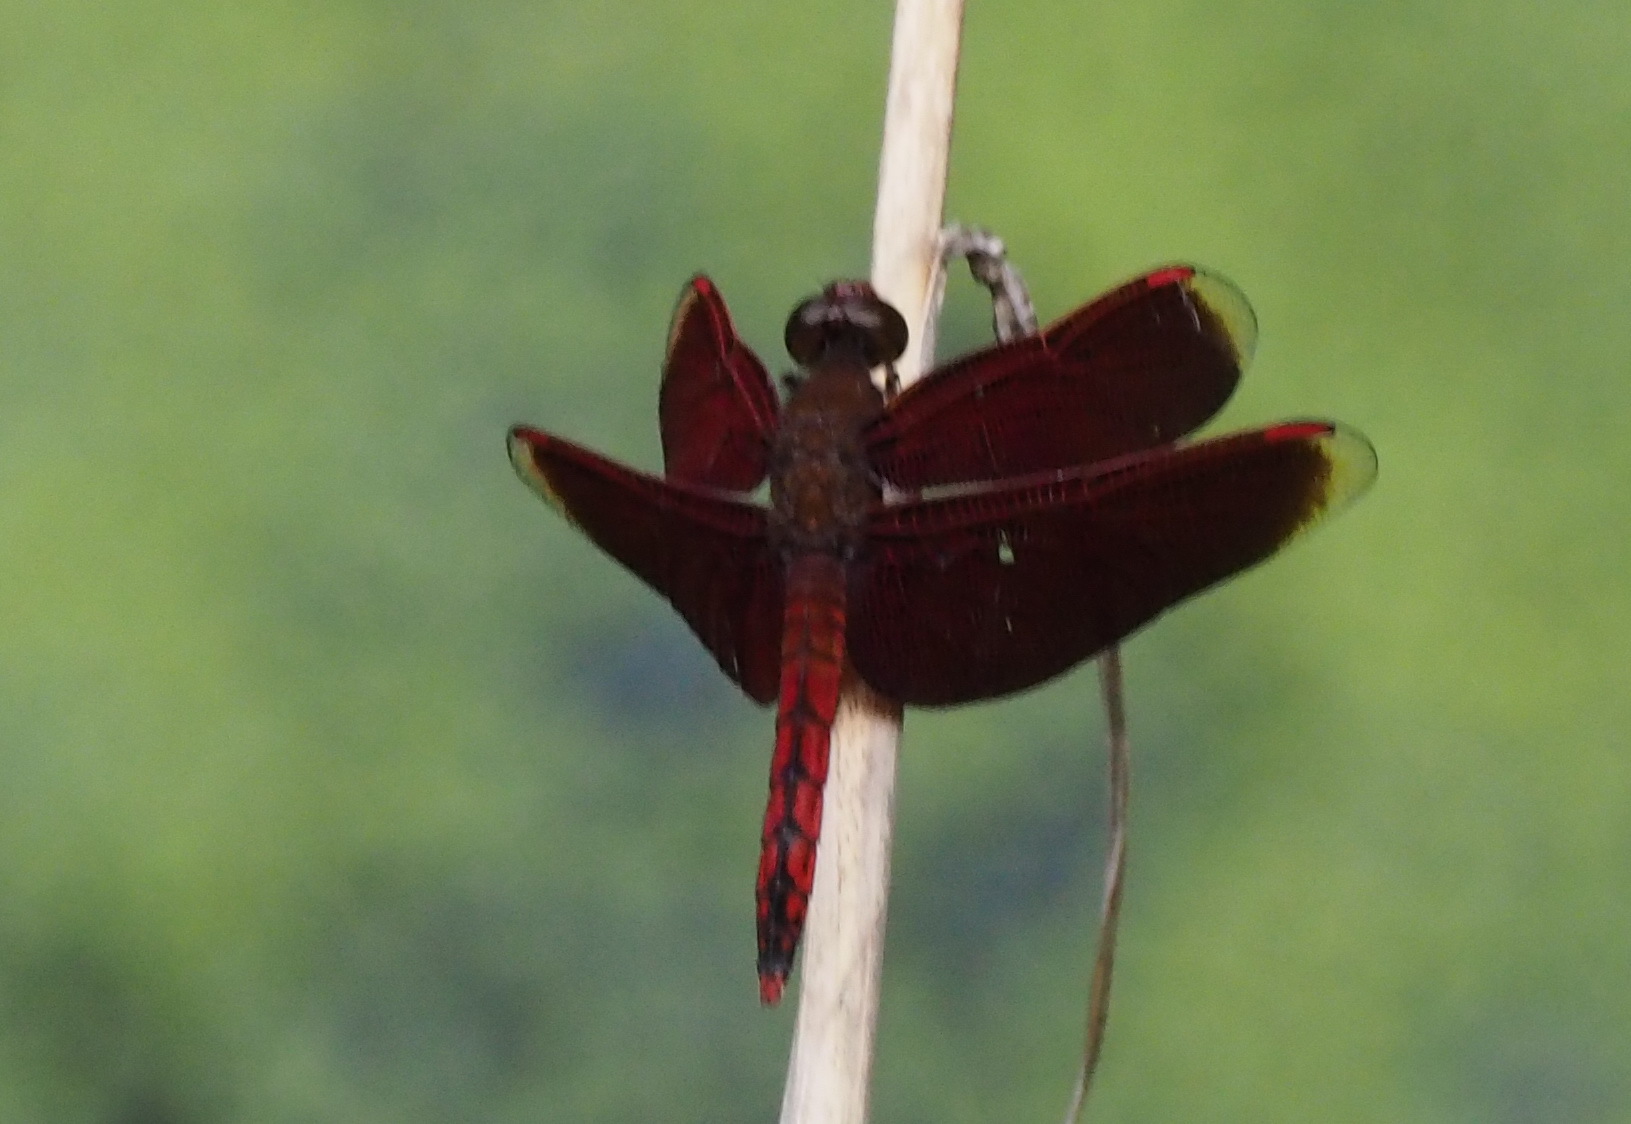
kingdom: Animalia
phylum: Arthropoda
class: Insecta
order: Odonata
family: Libellulidae
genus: Neurothemis
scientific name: Neurothemis taiwanensis
